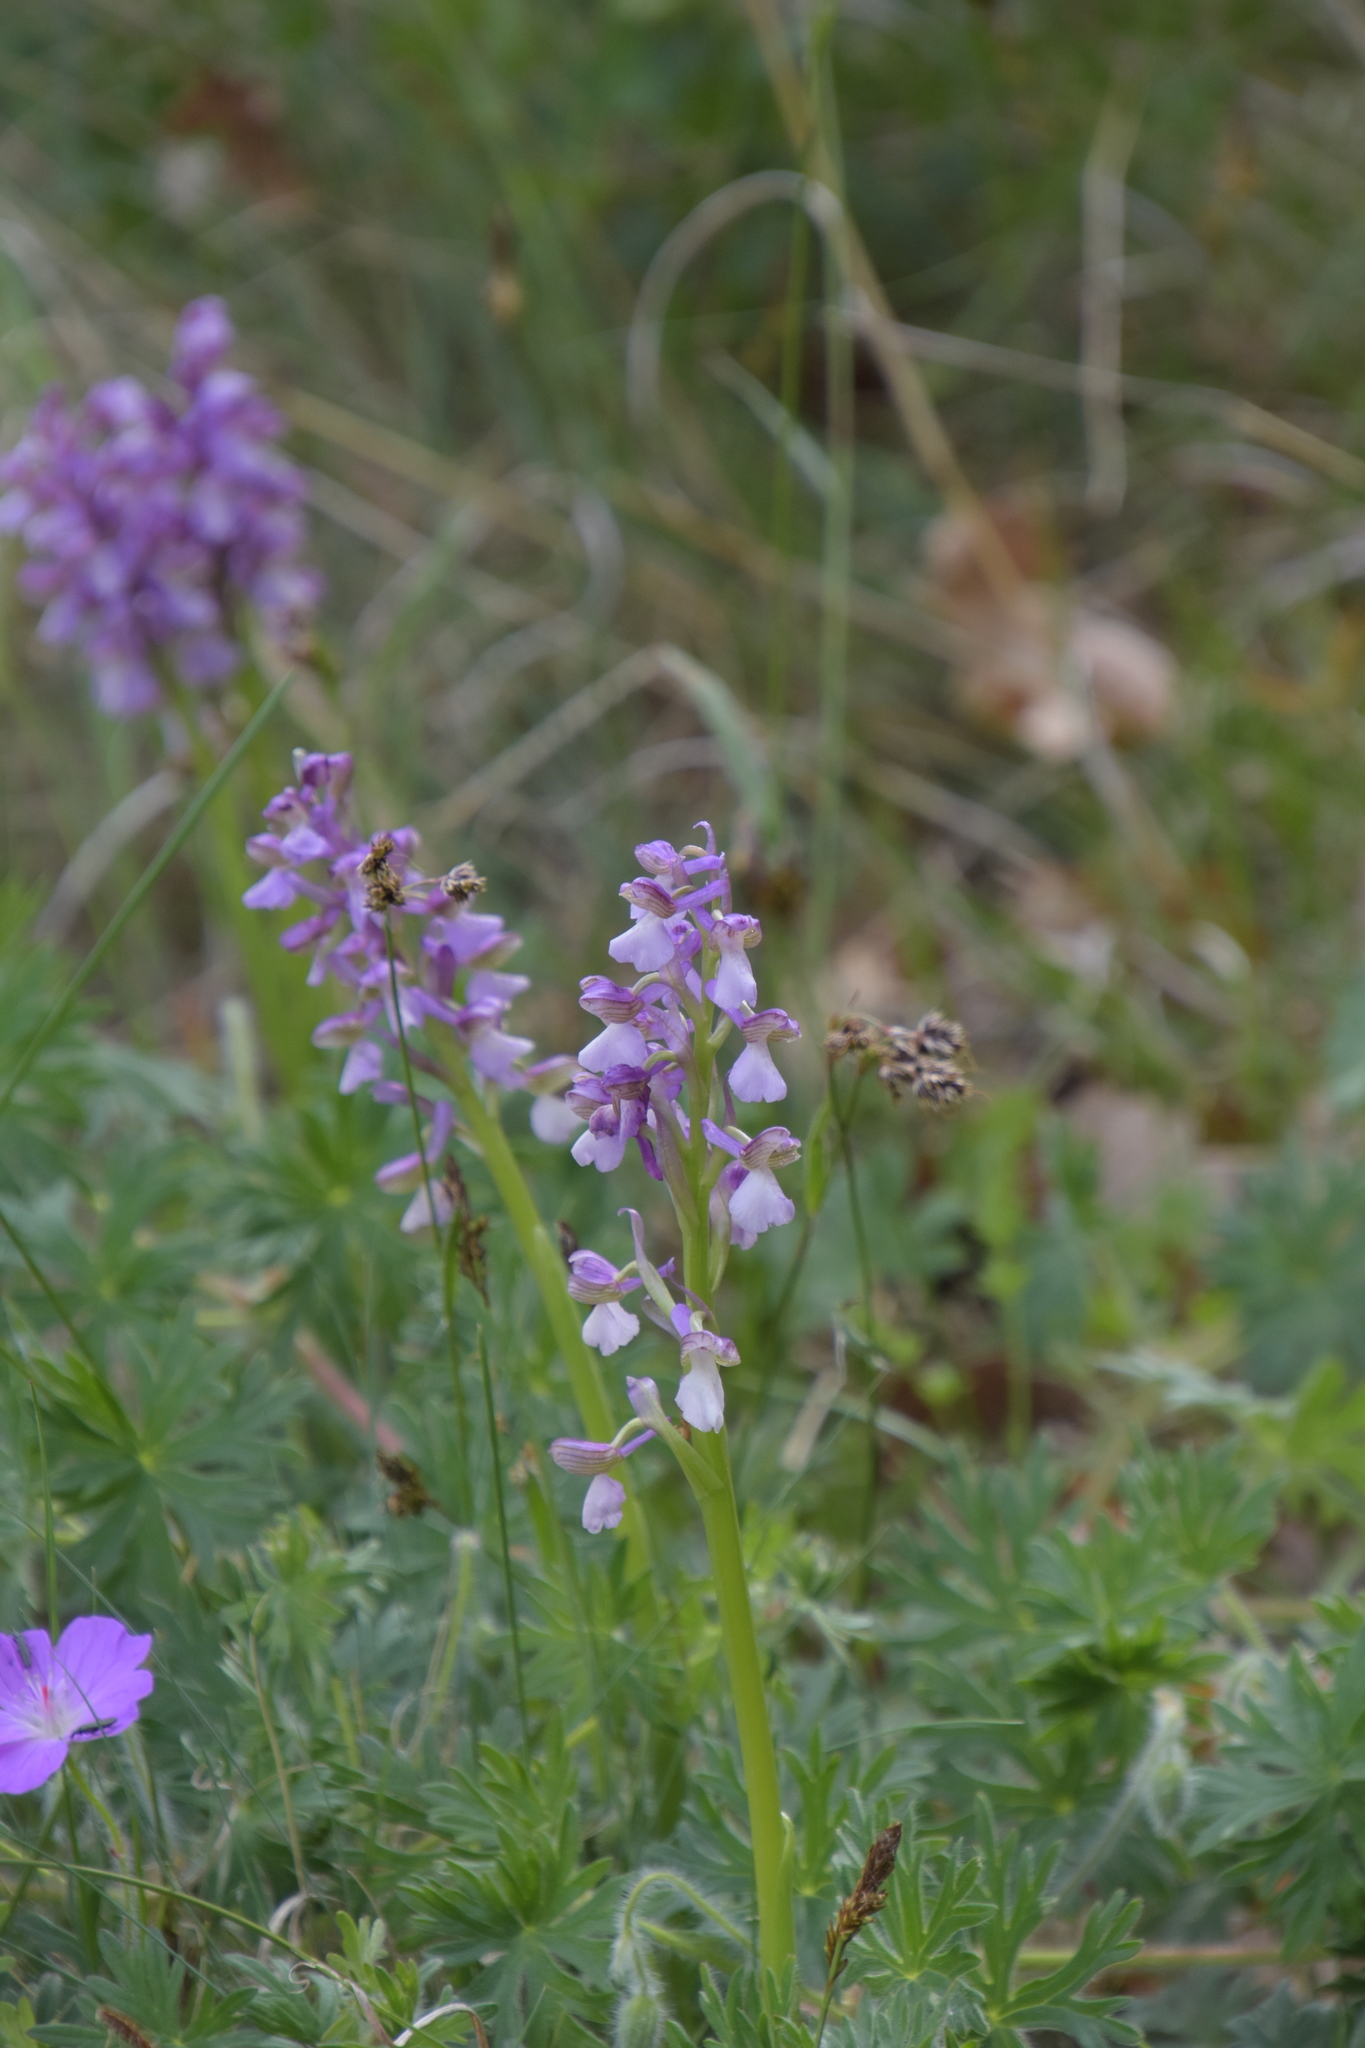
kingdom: Plantae
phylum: Tracheophyta
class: Liliopsida
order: Asparagales
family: Orchidaceae
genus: Anacamptis
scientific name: Anacamptis morio
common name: Green-winged orchid
